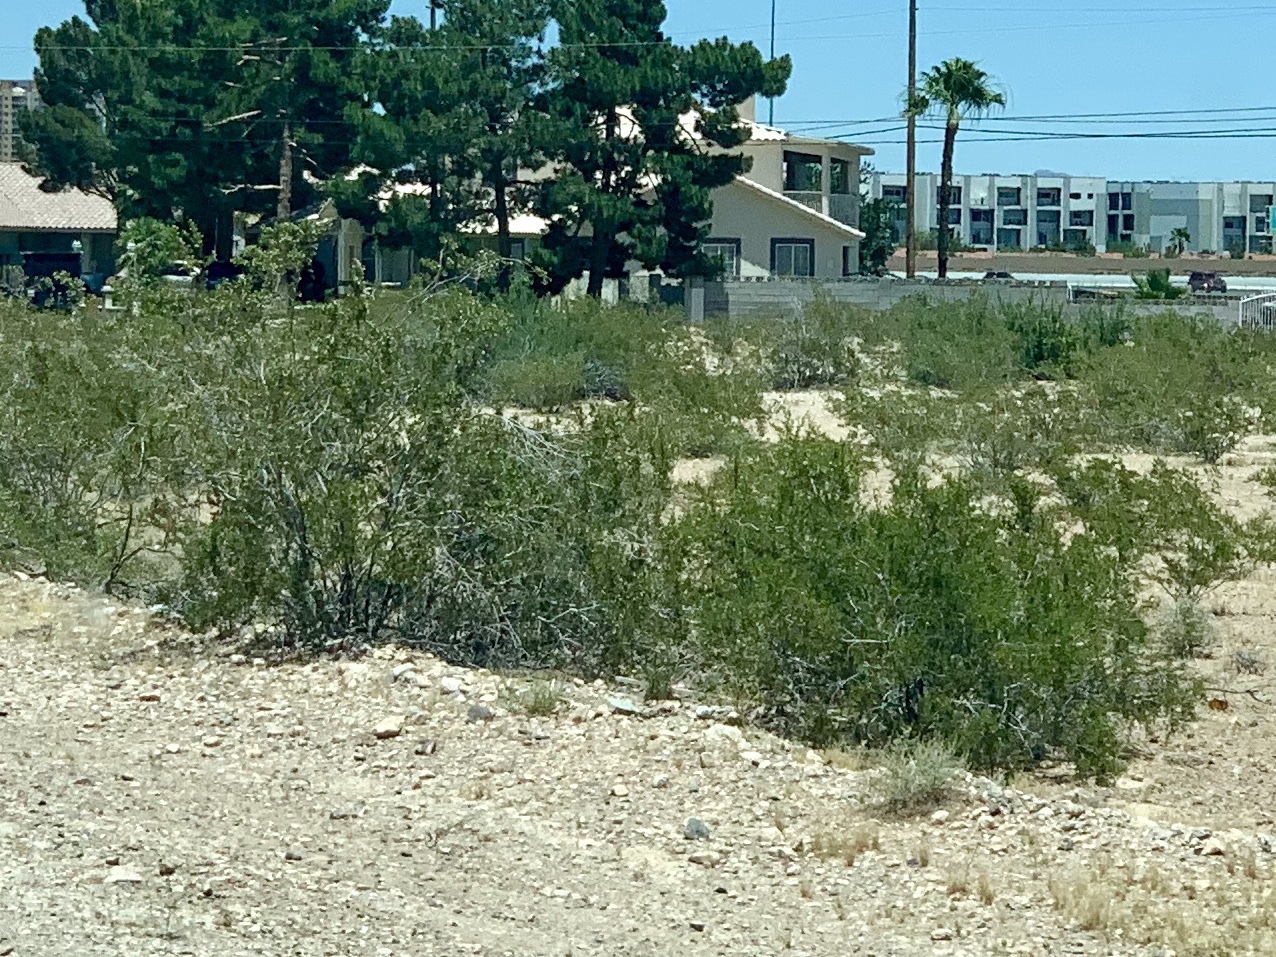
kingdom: Plantae
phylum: Tracheophyta
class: Magnoliopsida
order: Zygophyllales
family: Zygophyllaceae
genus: Larrea
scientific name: Larrea tridentata
